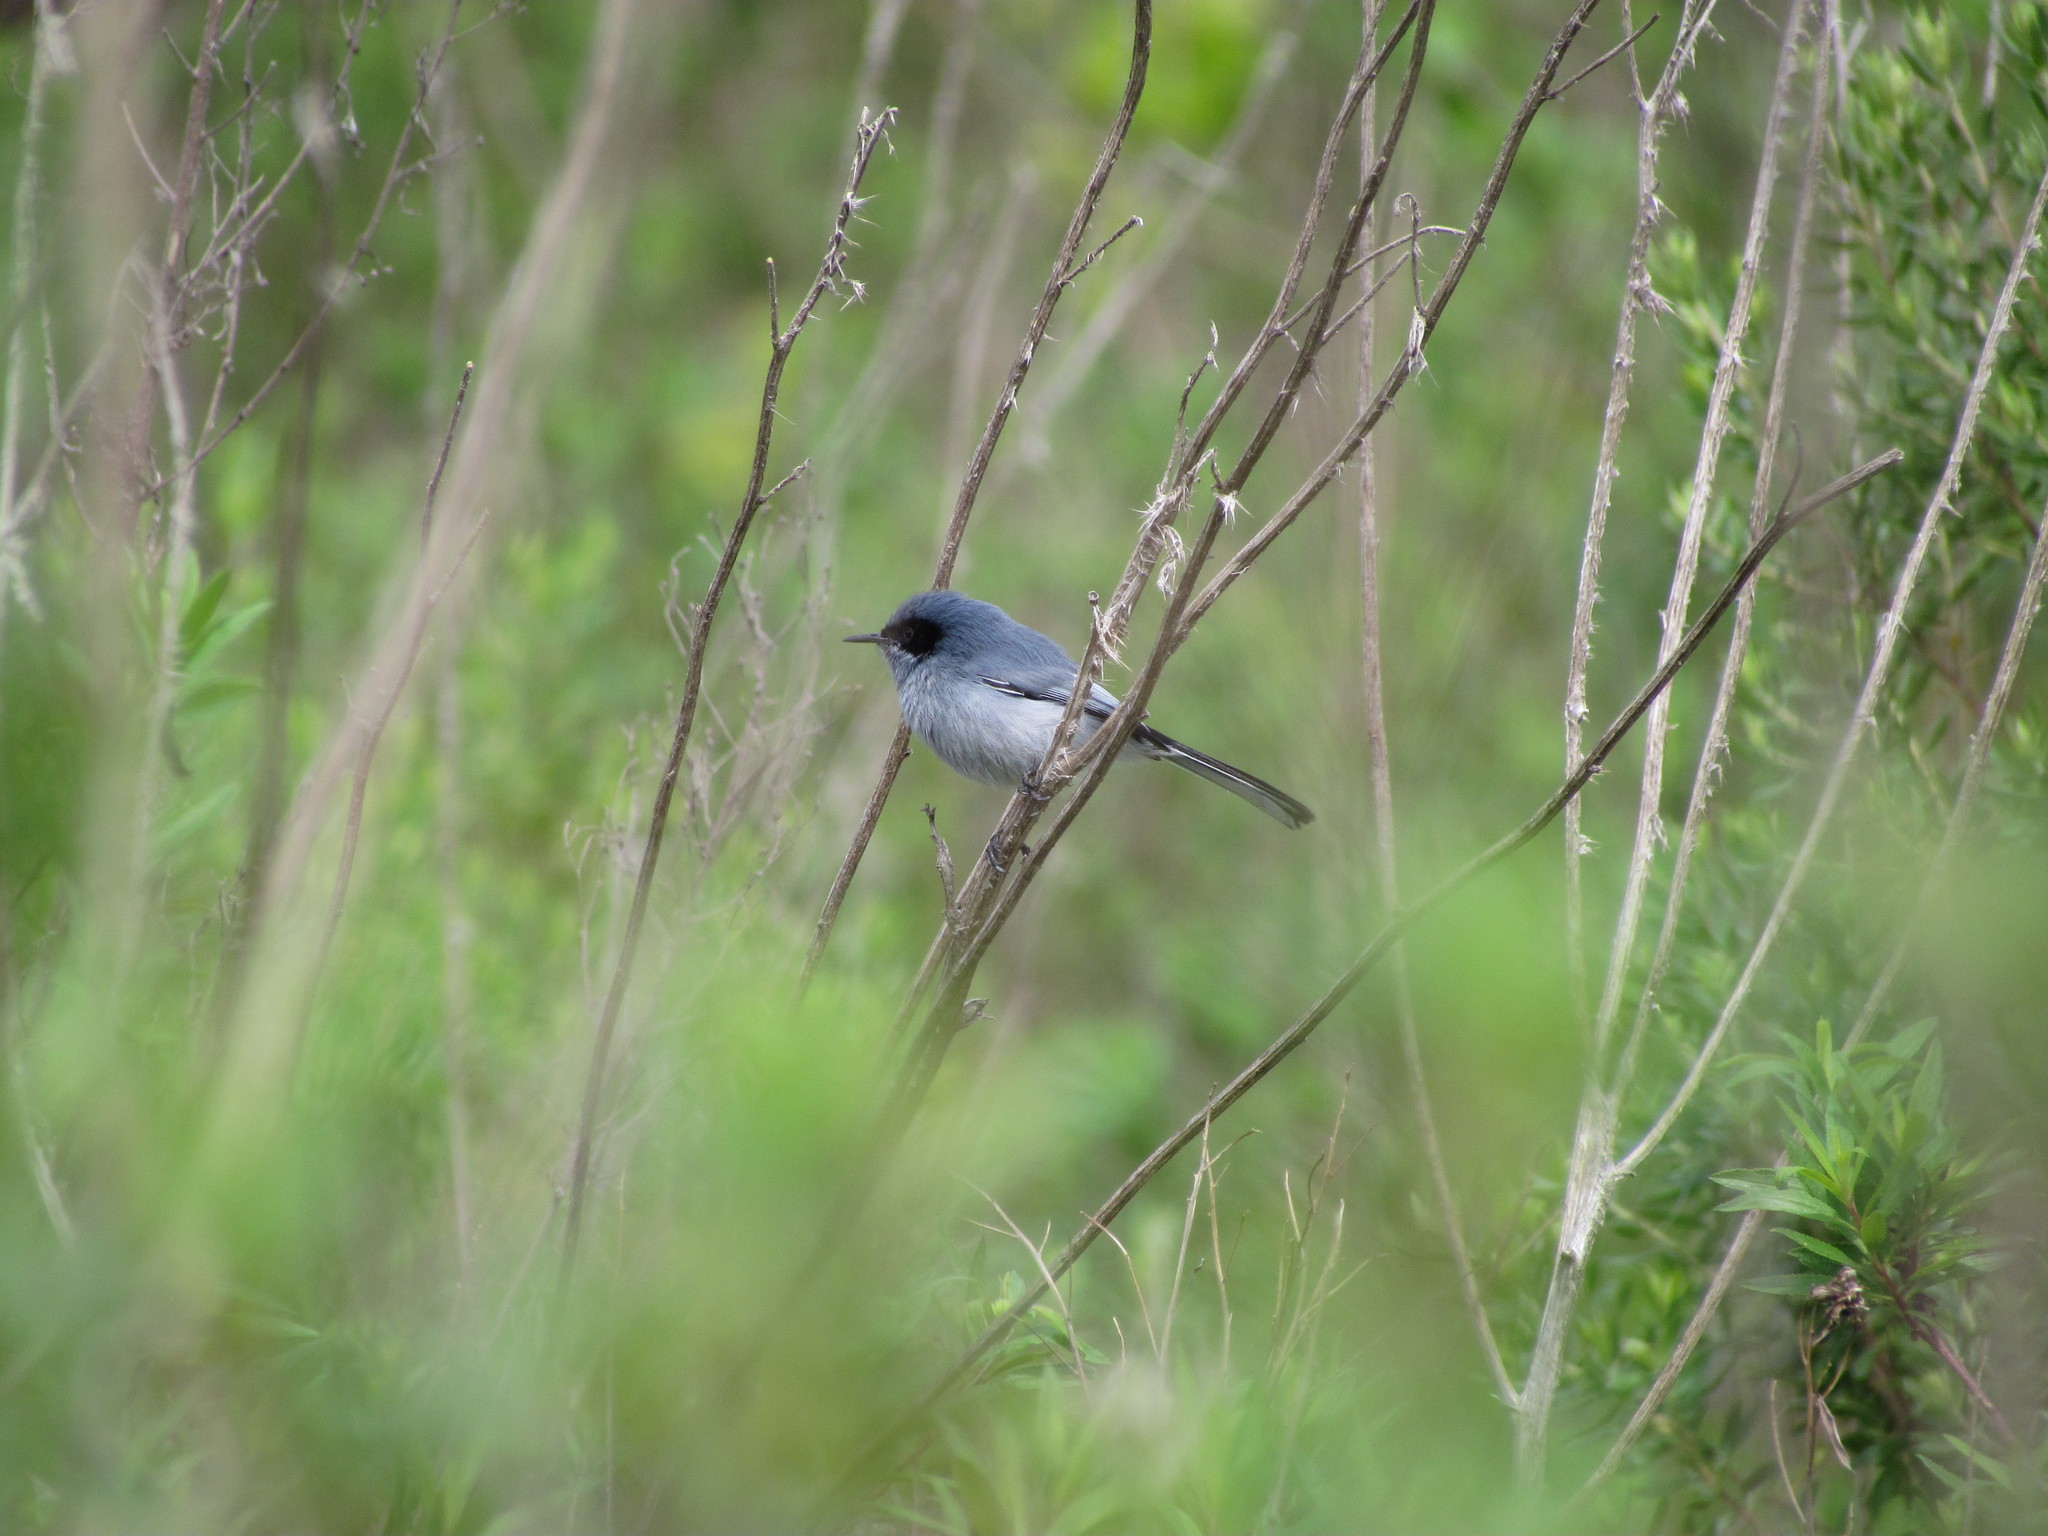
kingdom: Animalia
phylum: Chordata
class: Aves
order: Passeriformes
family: Polioptilidae
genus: Polioptila
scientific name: Polioptila dumicola
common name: Masked gnatcatcher
